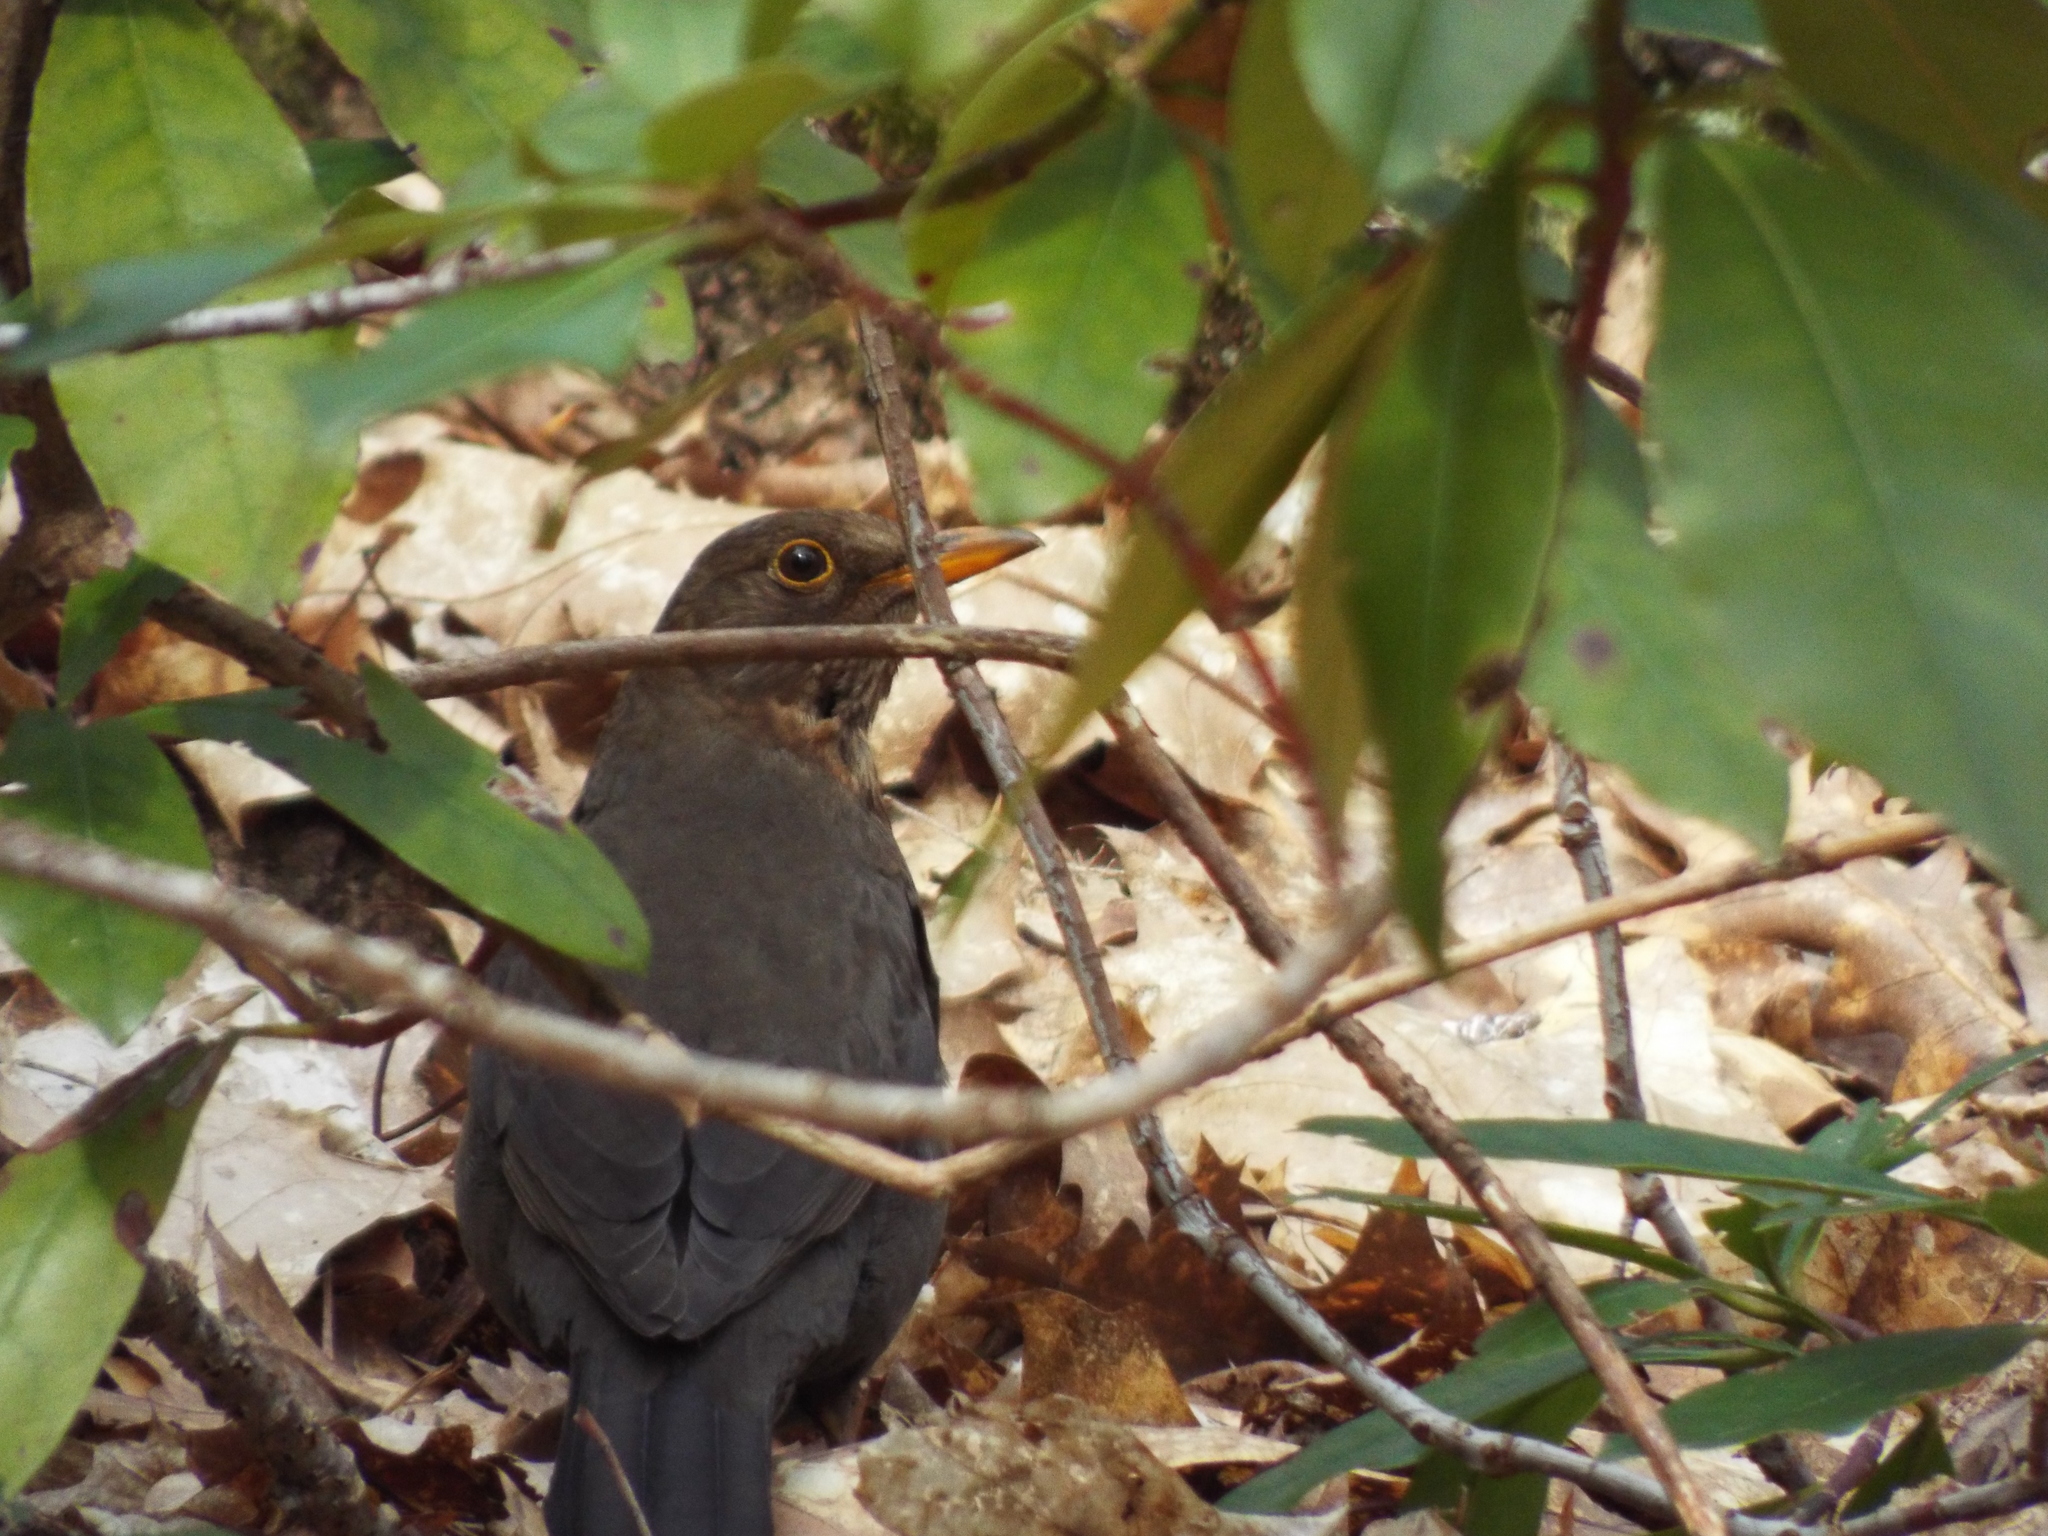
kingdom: Animalia
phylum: Chordata
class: Aves
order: Passeriformes
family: Turdidae
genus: Turdus
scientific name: Turdus merula
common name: Common blackbird
